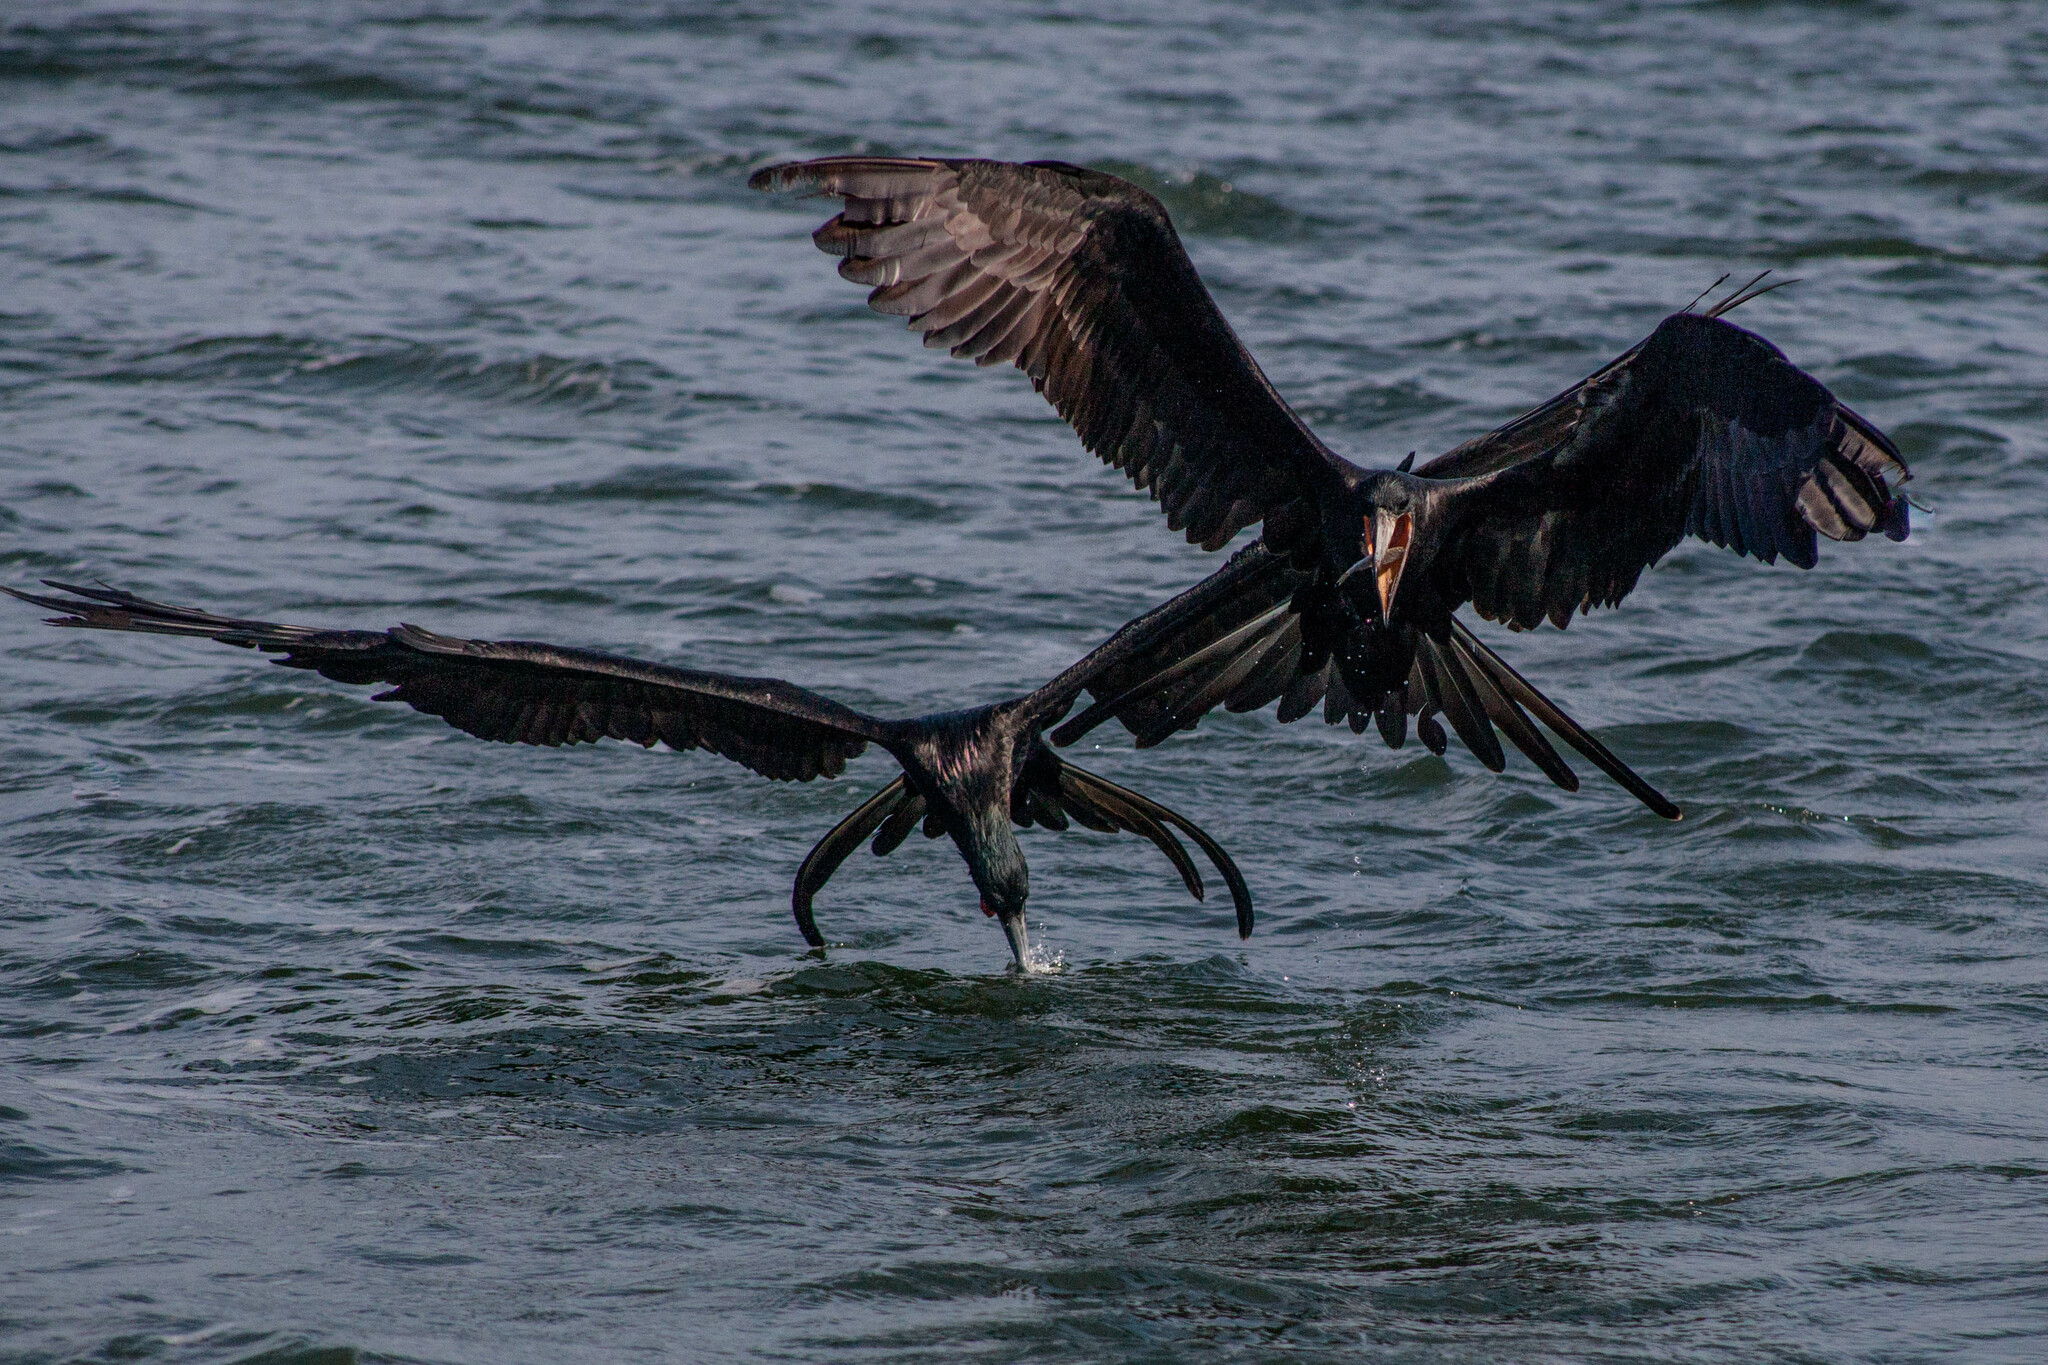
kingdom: Animalia
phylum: Chordata
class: Aves
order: Suliformes
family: Fregatidae
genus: Fregata
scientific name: Fregata magnificens
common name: Magnificent frigatebird
